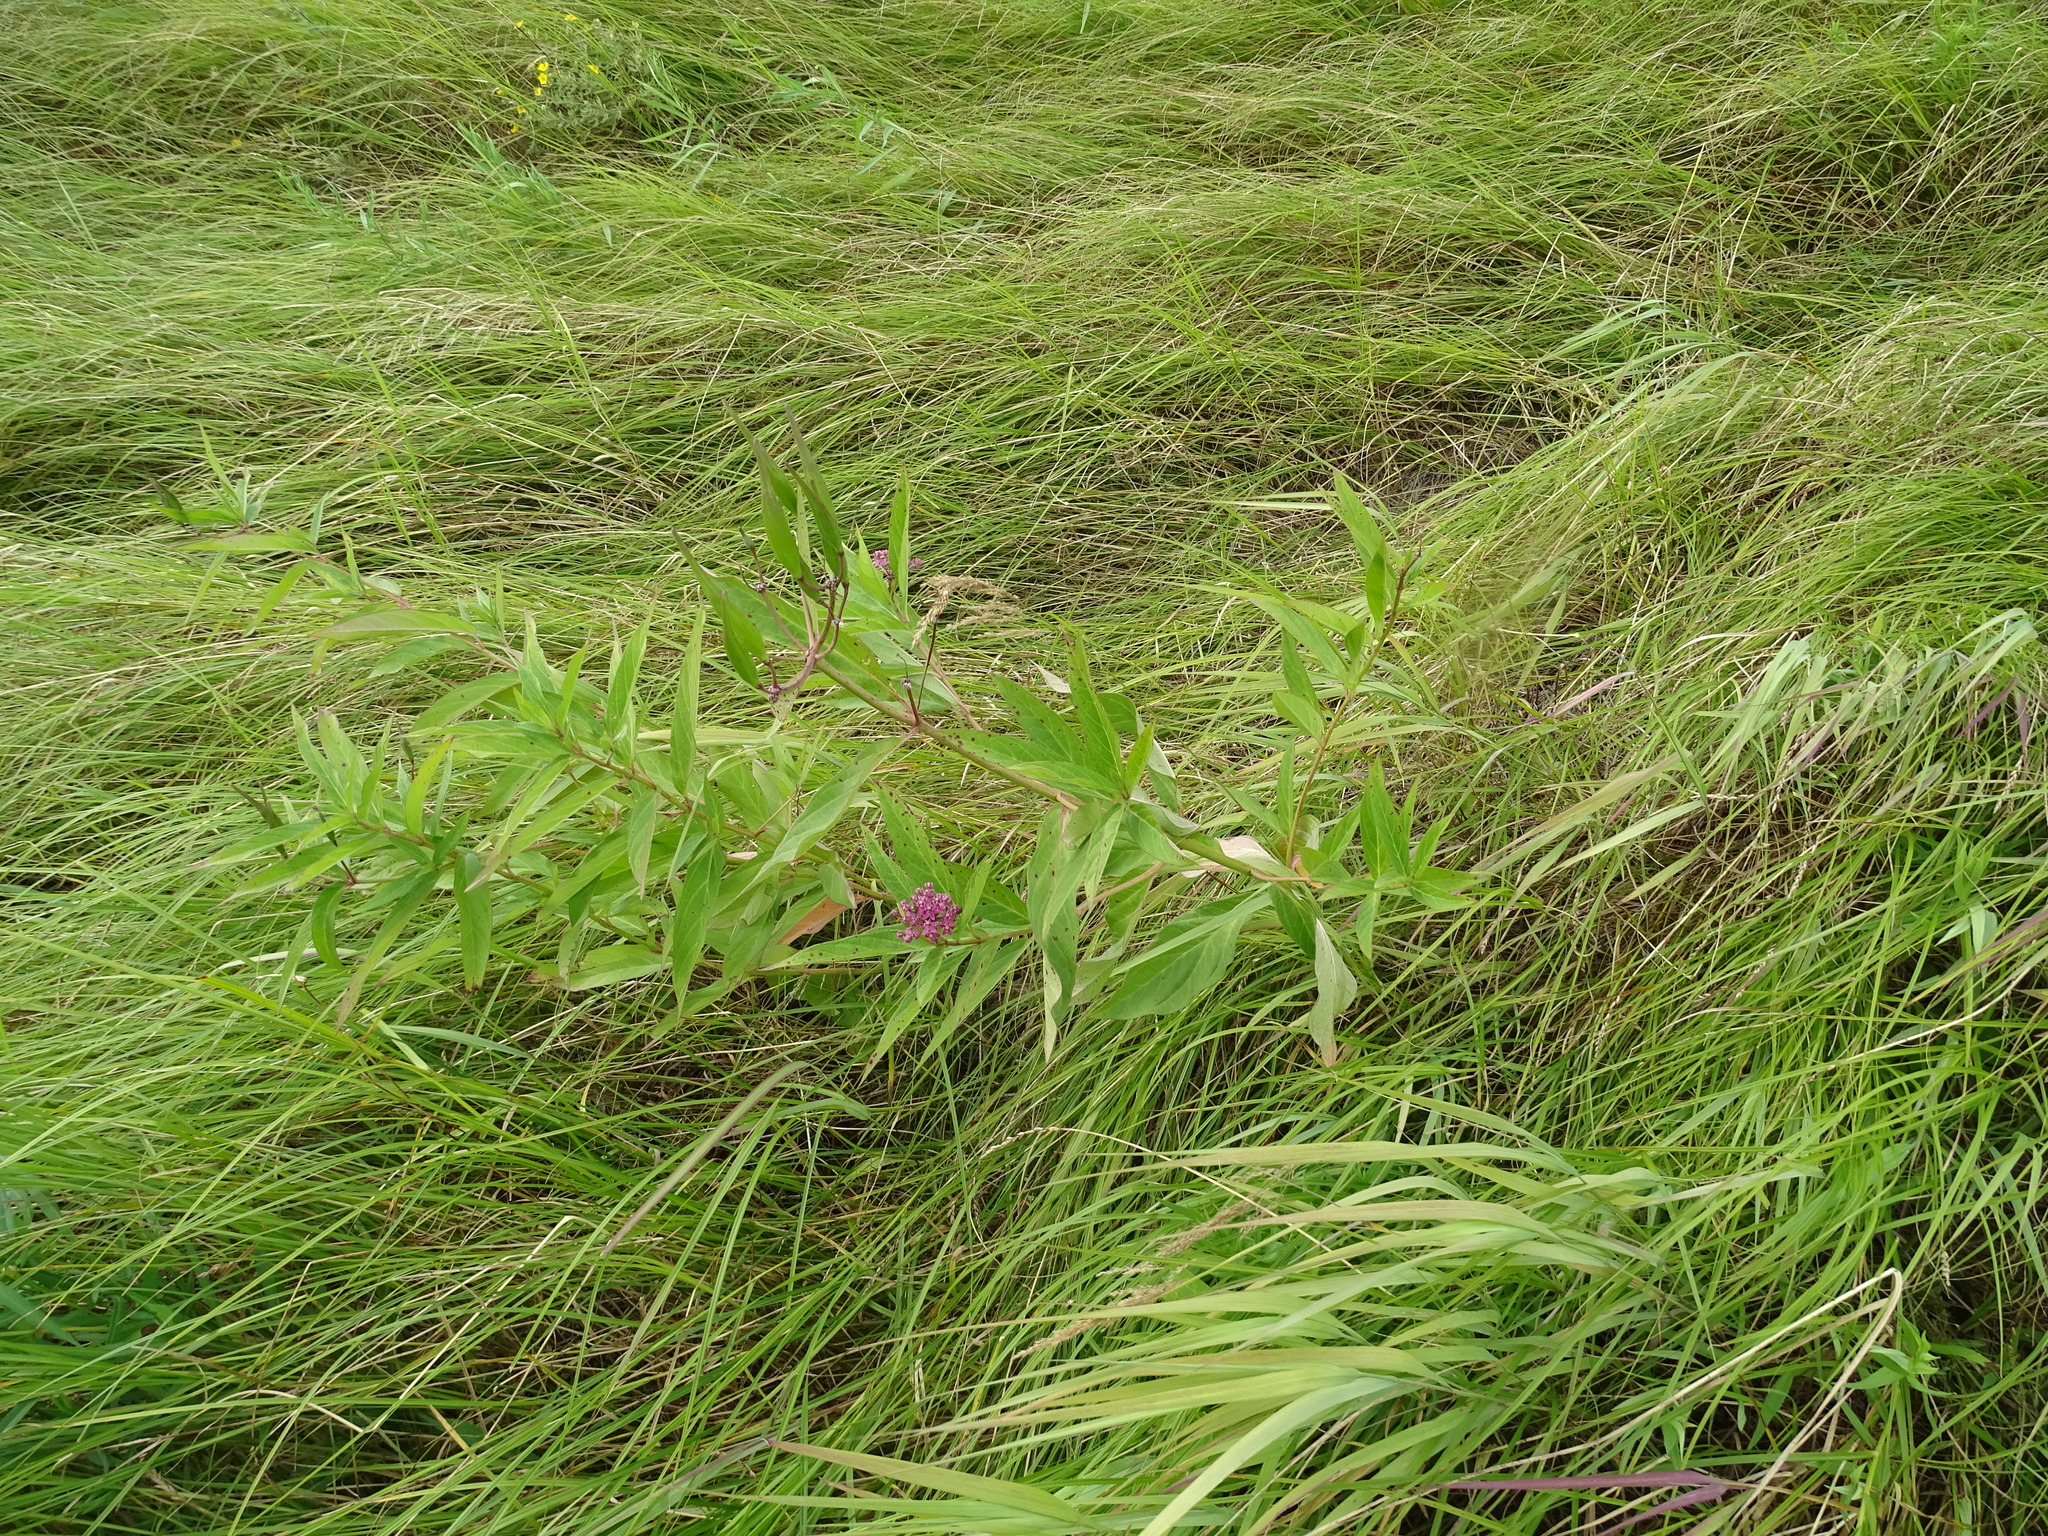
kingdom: Plantae
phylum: Tracheophyta
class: Magnoliopsida
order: Gentianales
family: Apocynaceae
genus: Asclepias
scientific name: Asclepias incarnata
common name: Swamp milkweed
